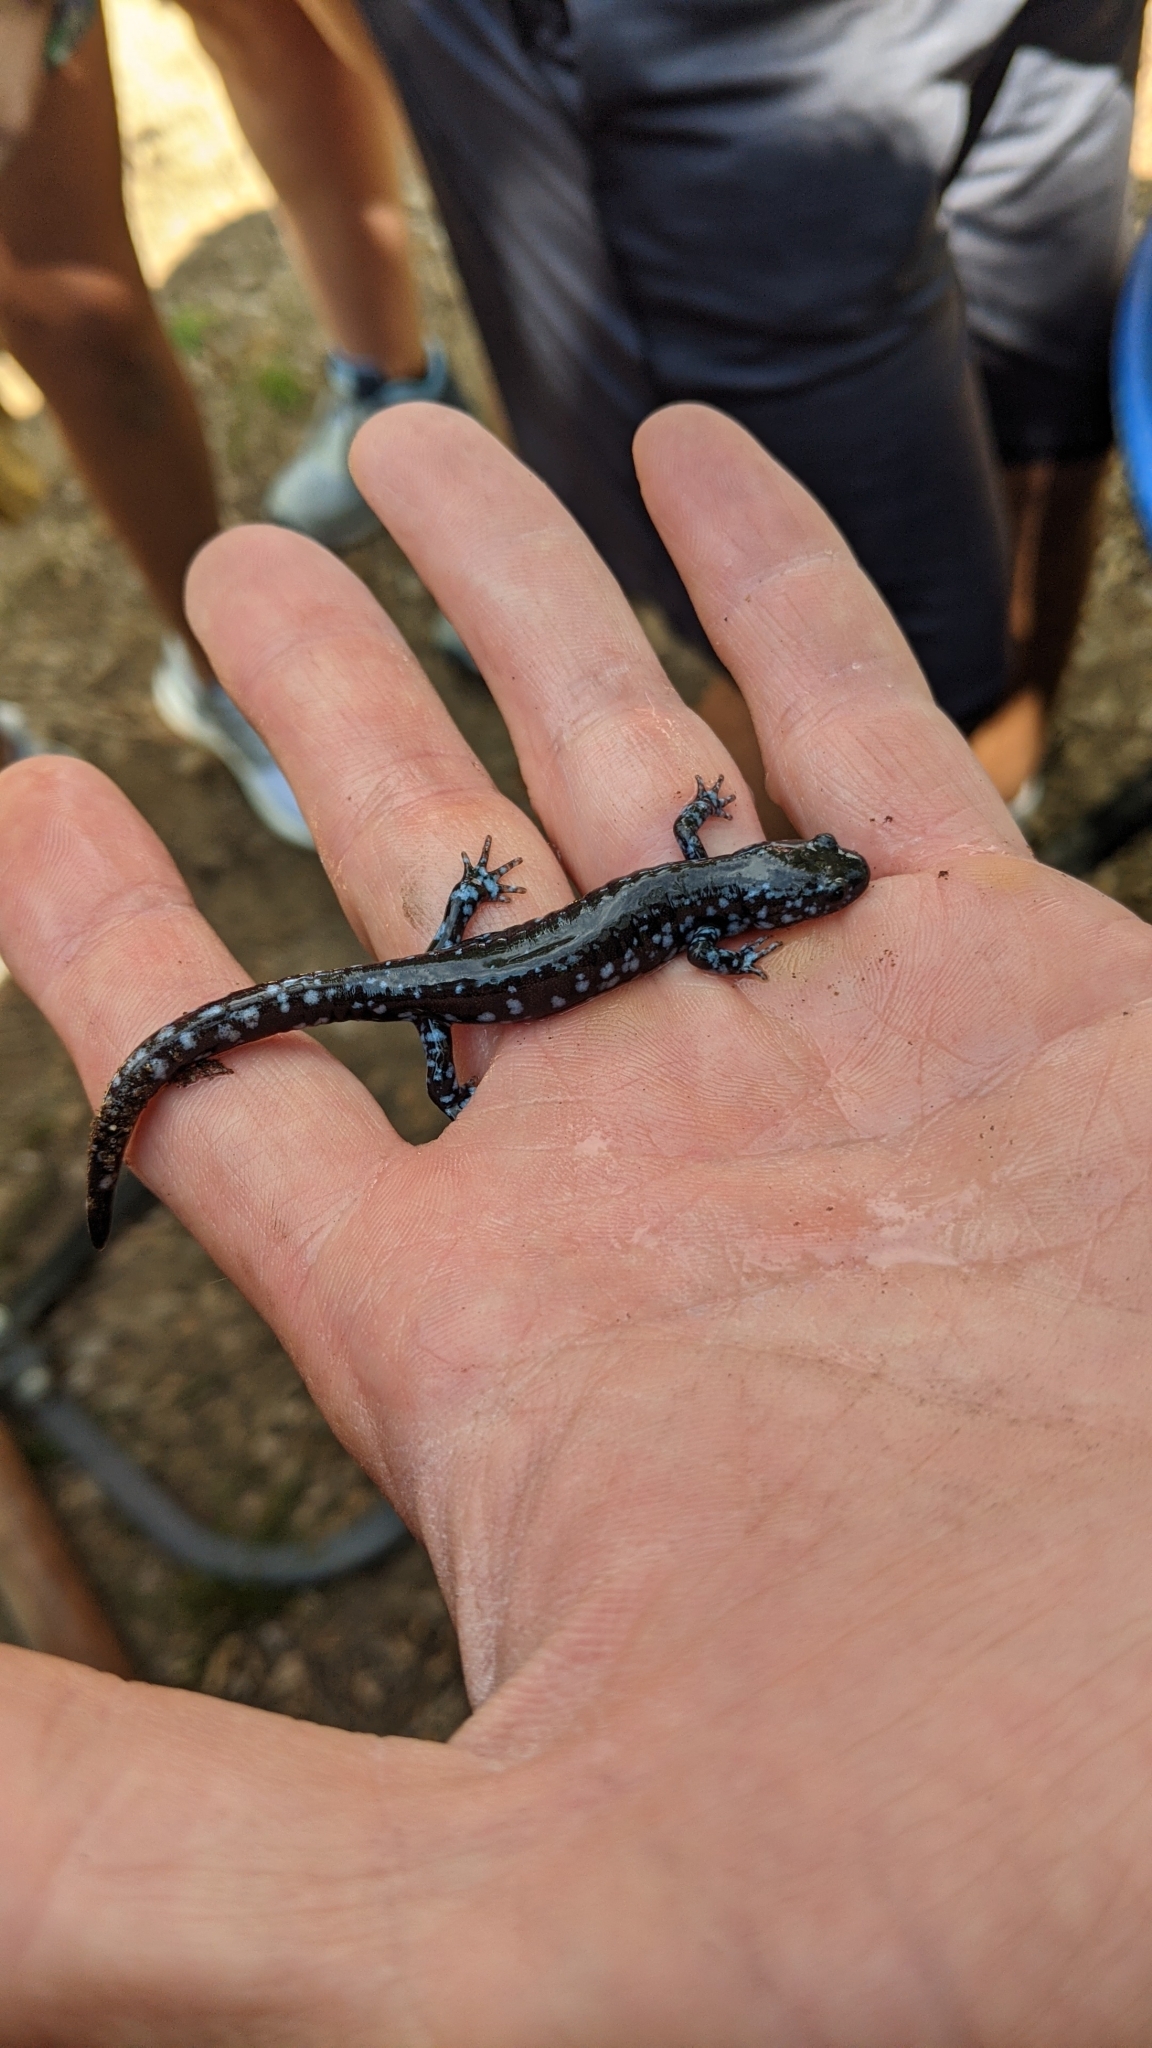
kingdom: Animalia
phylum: Chordata
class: Amphibia
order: Caudata
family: Ambystomatidae
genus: Ambystoma
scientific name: Ambystoma laterale
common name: Blue-spotted salamander
